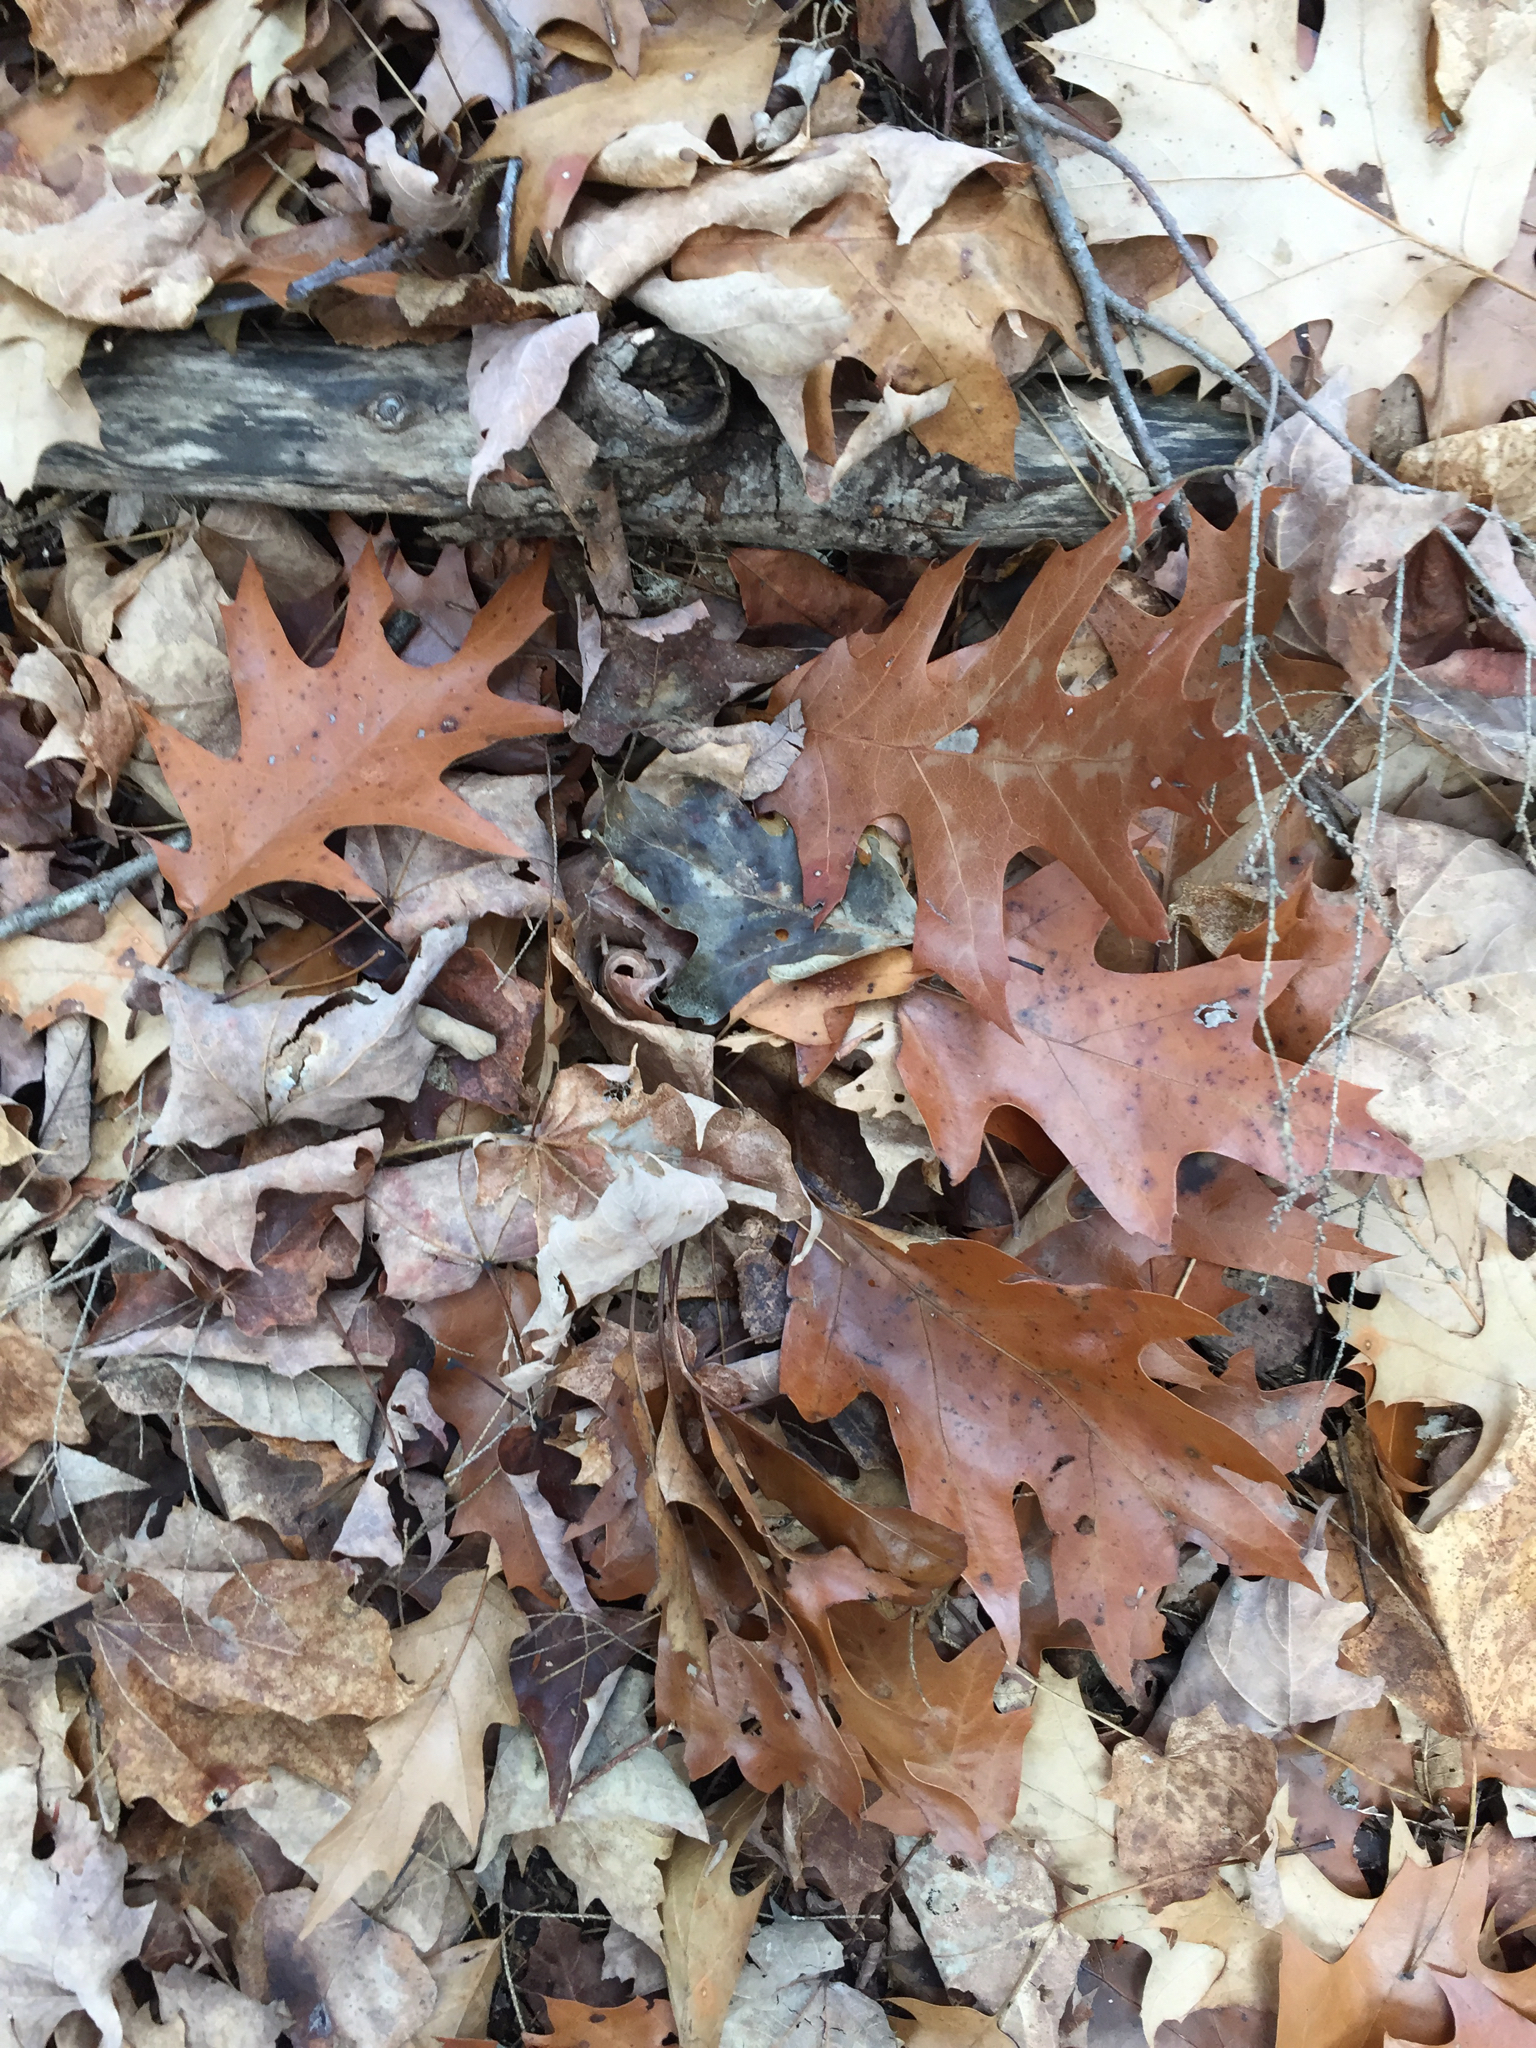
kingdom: Plantae
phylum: Tracheophyta
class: Magnoliopsida
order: Fagales
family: Fagaceae
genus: Quercus
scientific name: Quercus rubra
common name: Red oak
